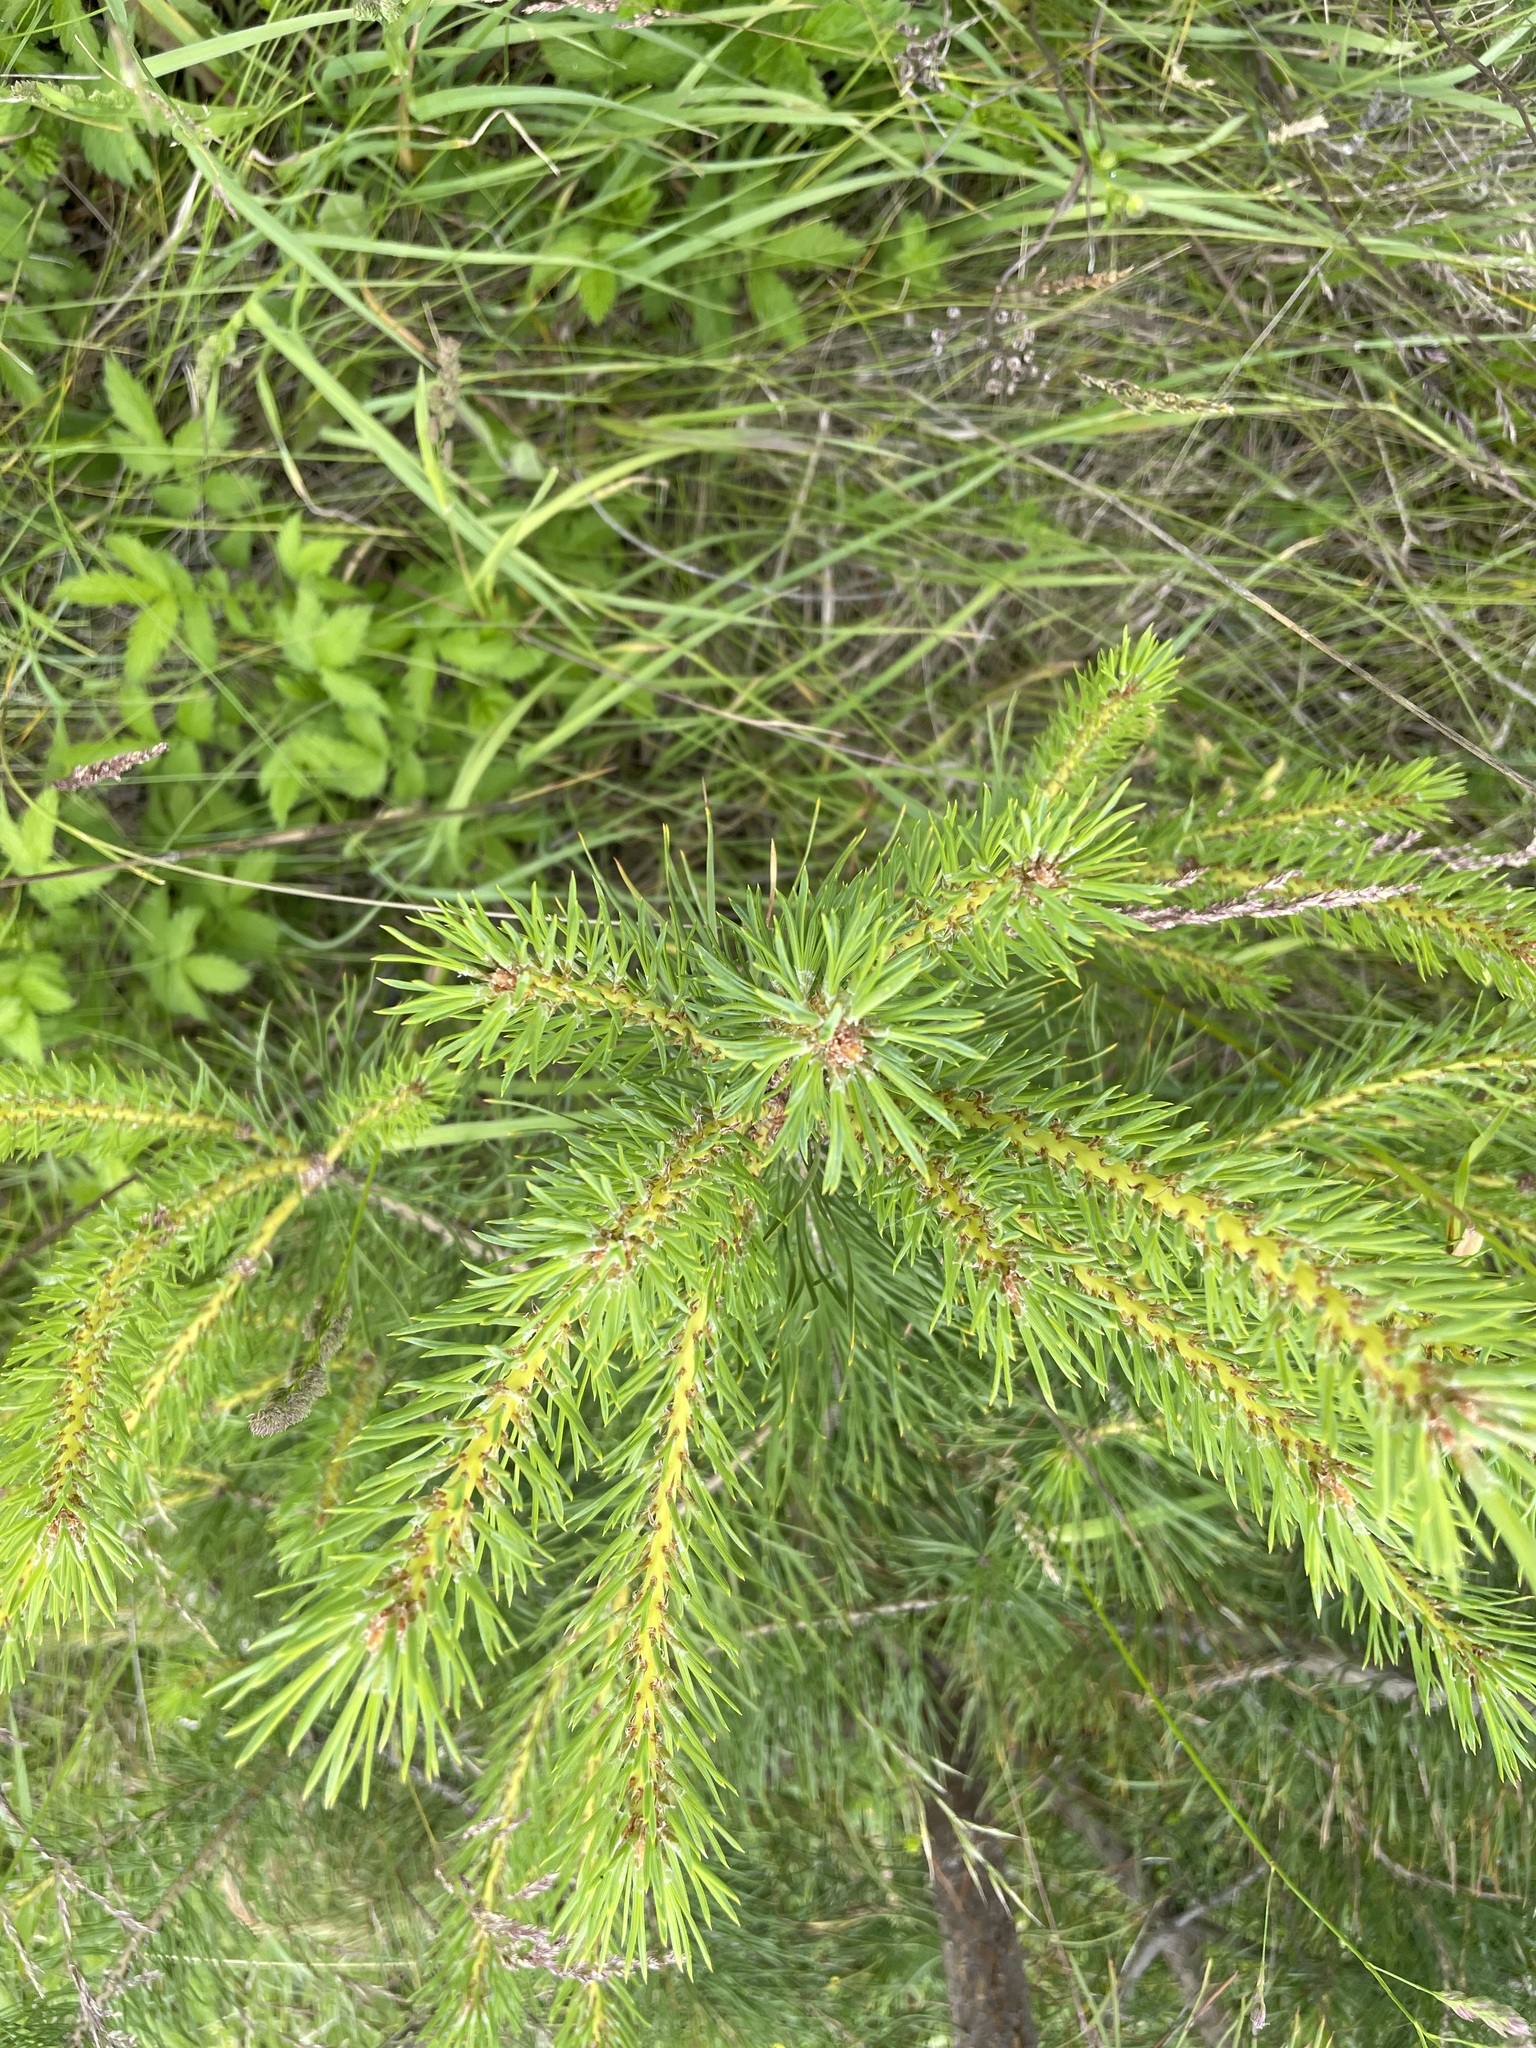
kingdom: Plantae
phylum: Tracheophyta
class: Pinopsida
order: Pinales
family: Pinaceae
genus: Pinus
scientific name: Pinus sylvestris
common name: Scots pine
